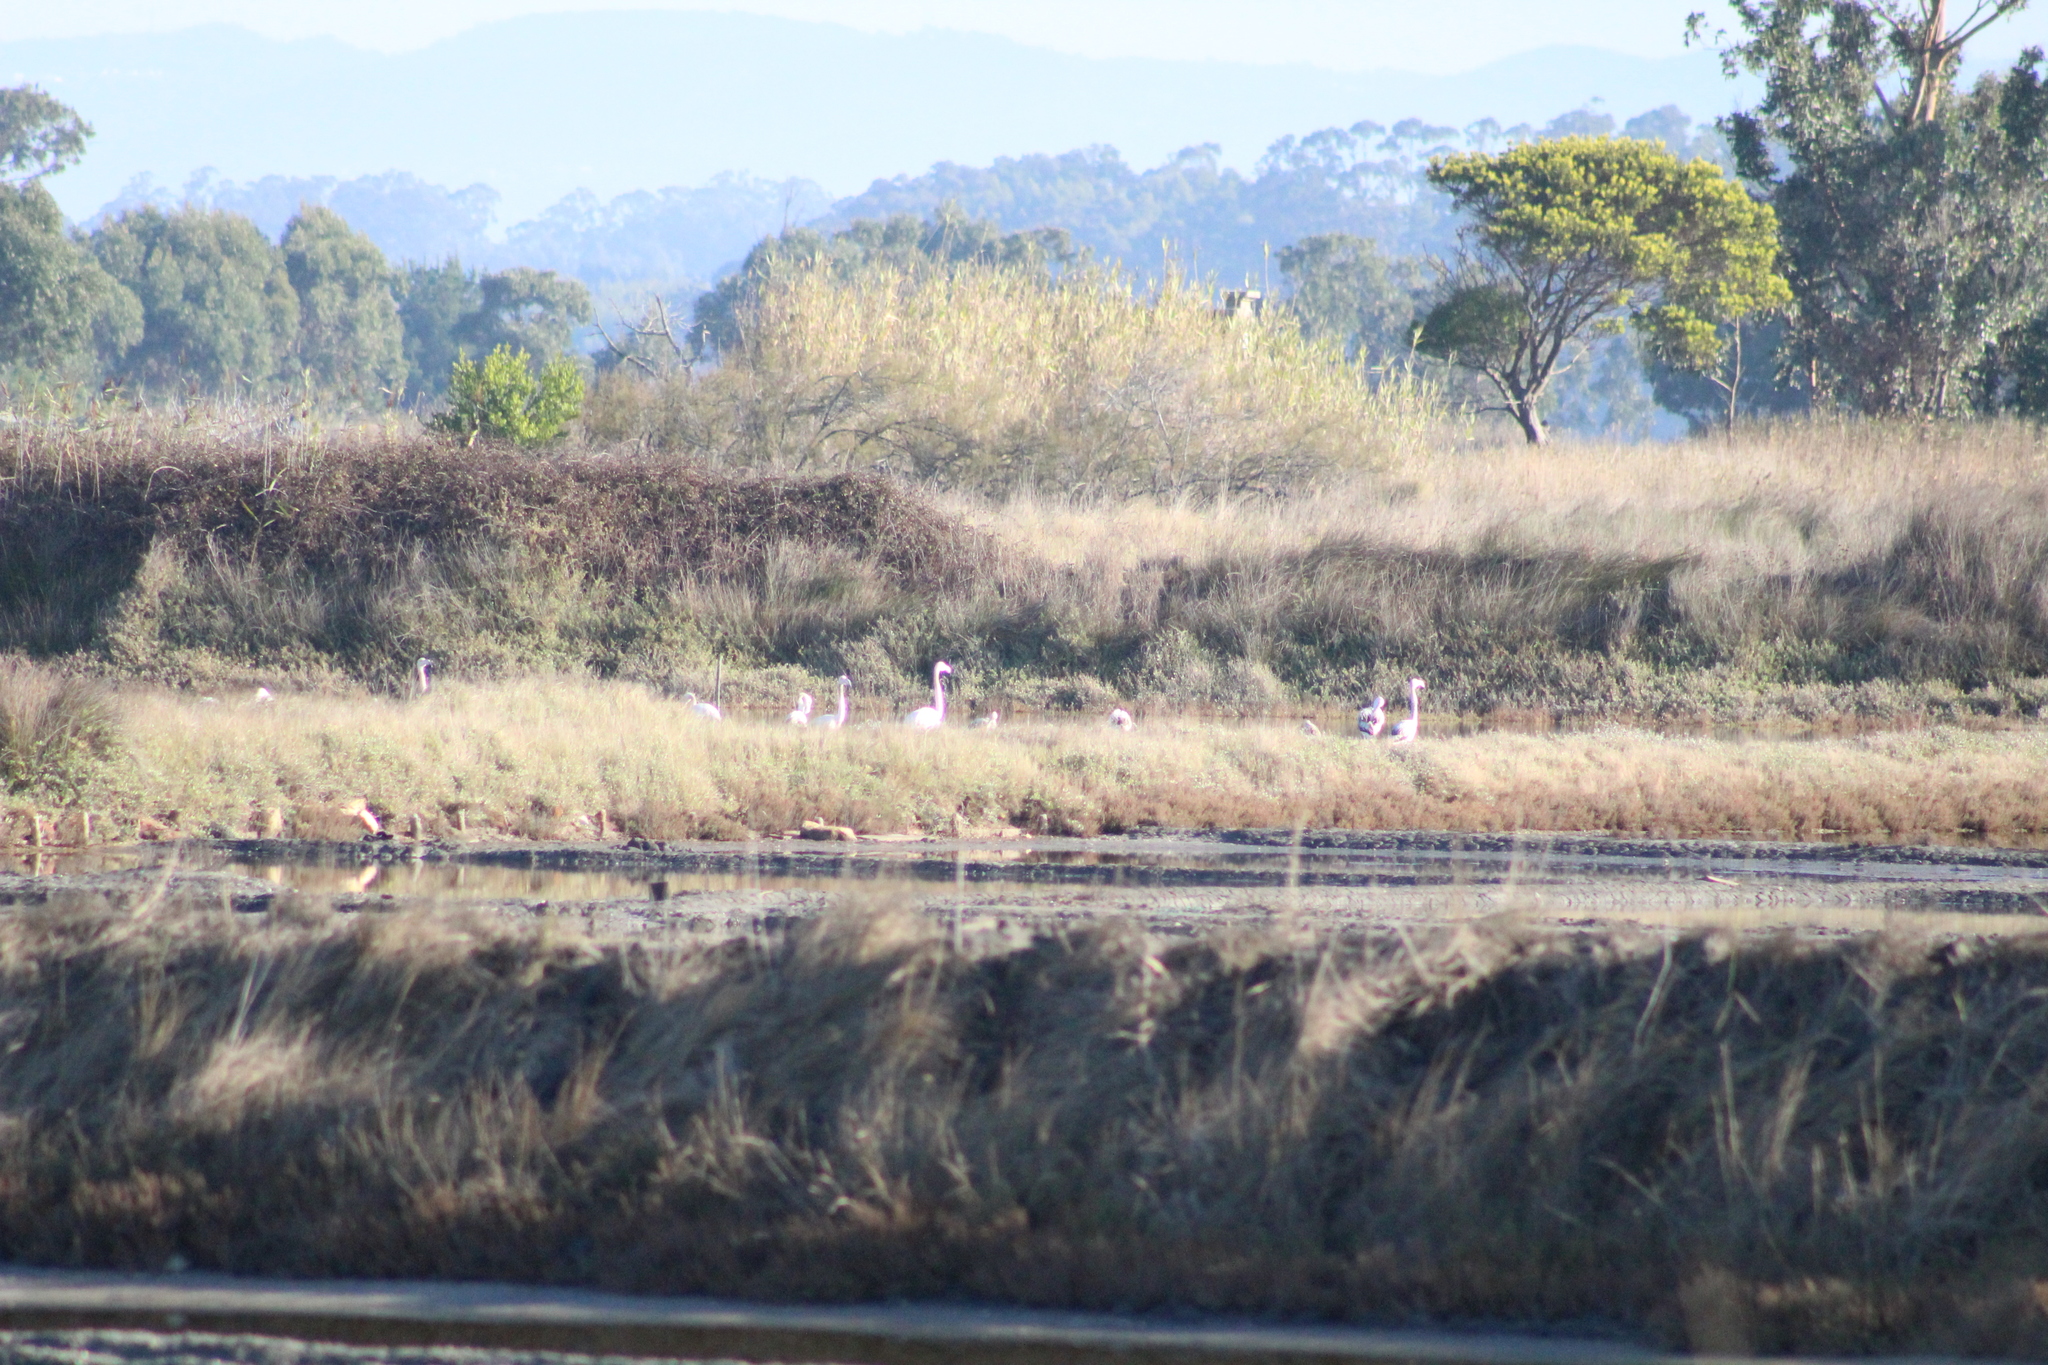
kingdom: Animalia
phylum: Chordata
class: Aves
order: Phoenicopteriformes
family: Phoenicopteridae
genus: Phoenicopterus
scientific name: Phoenicopterus roseus
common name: Greater flamingo
